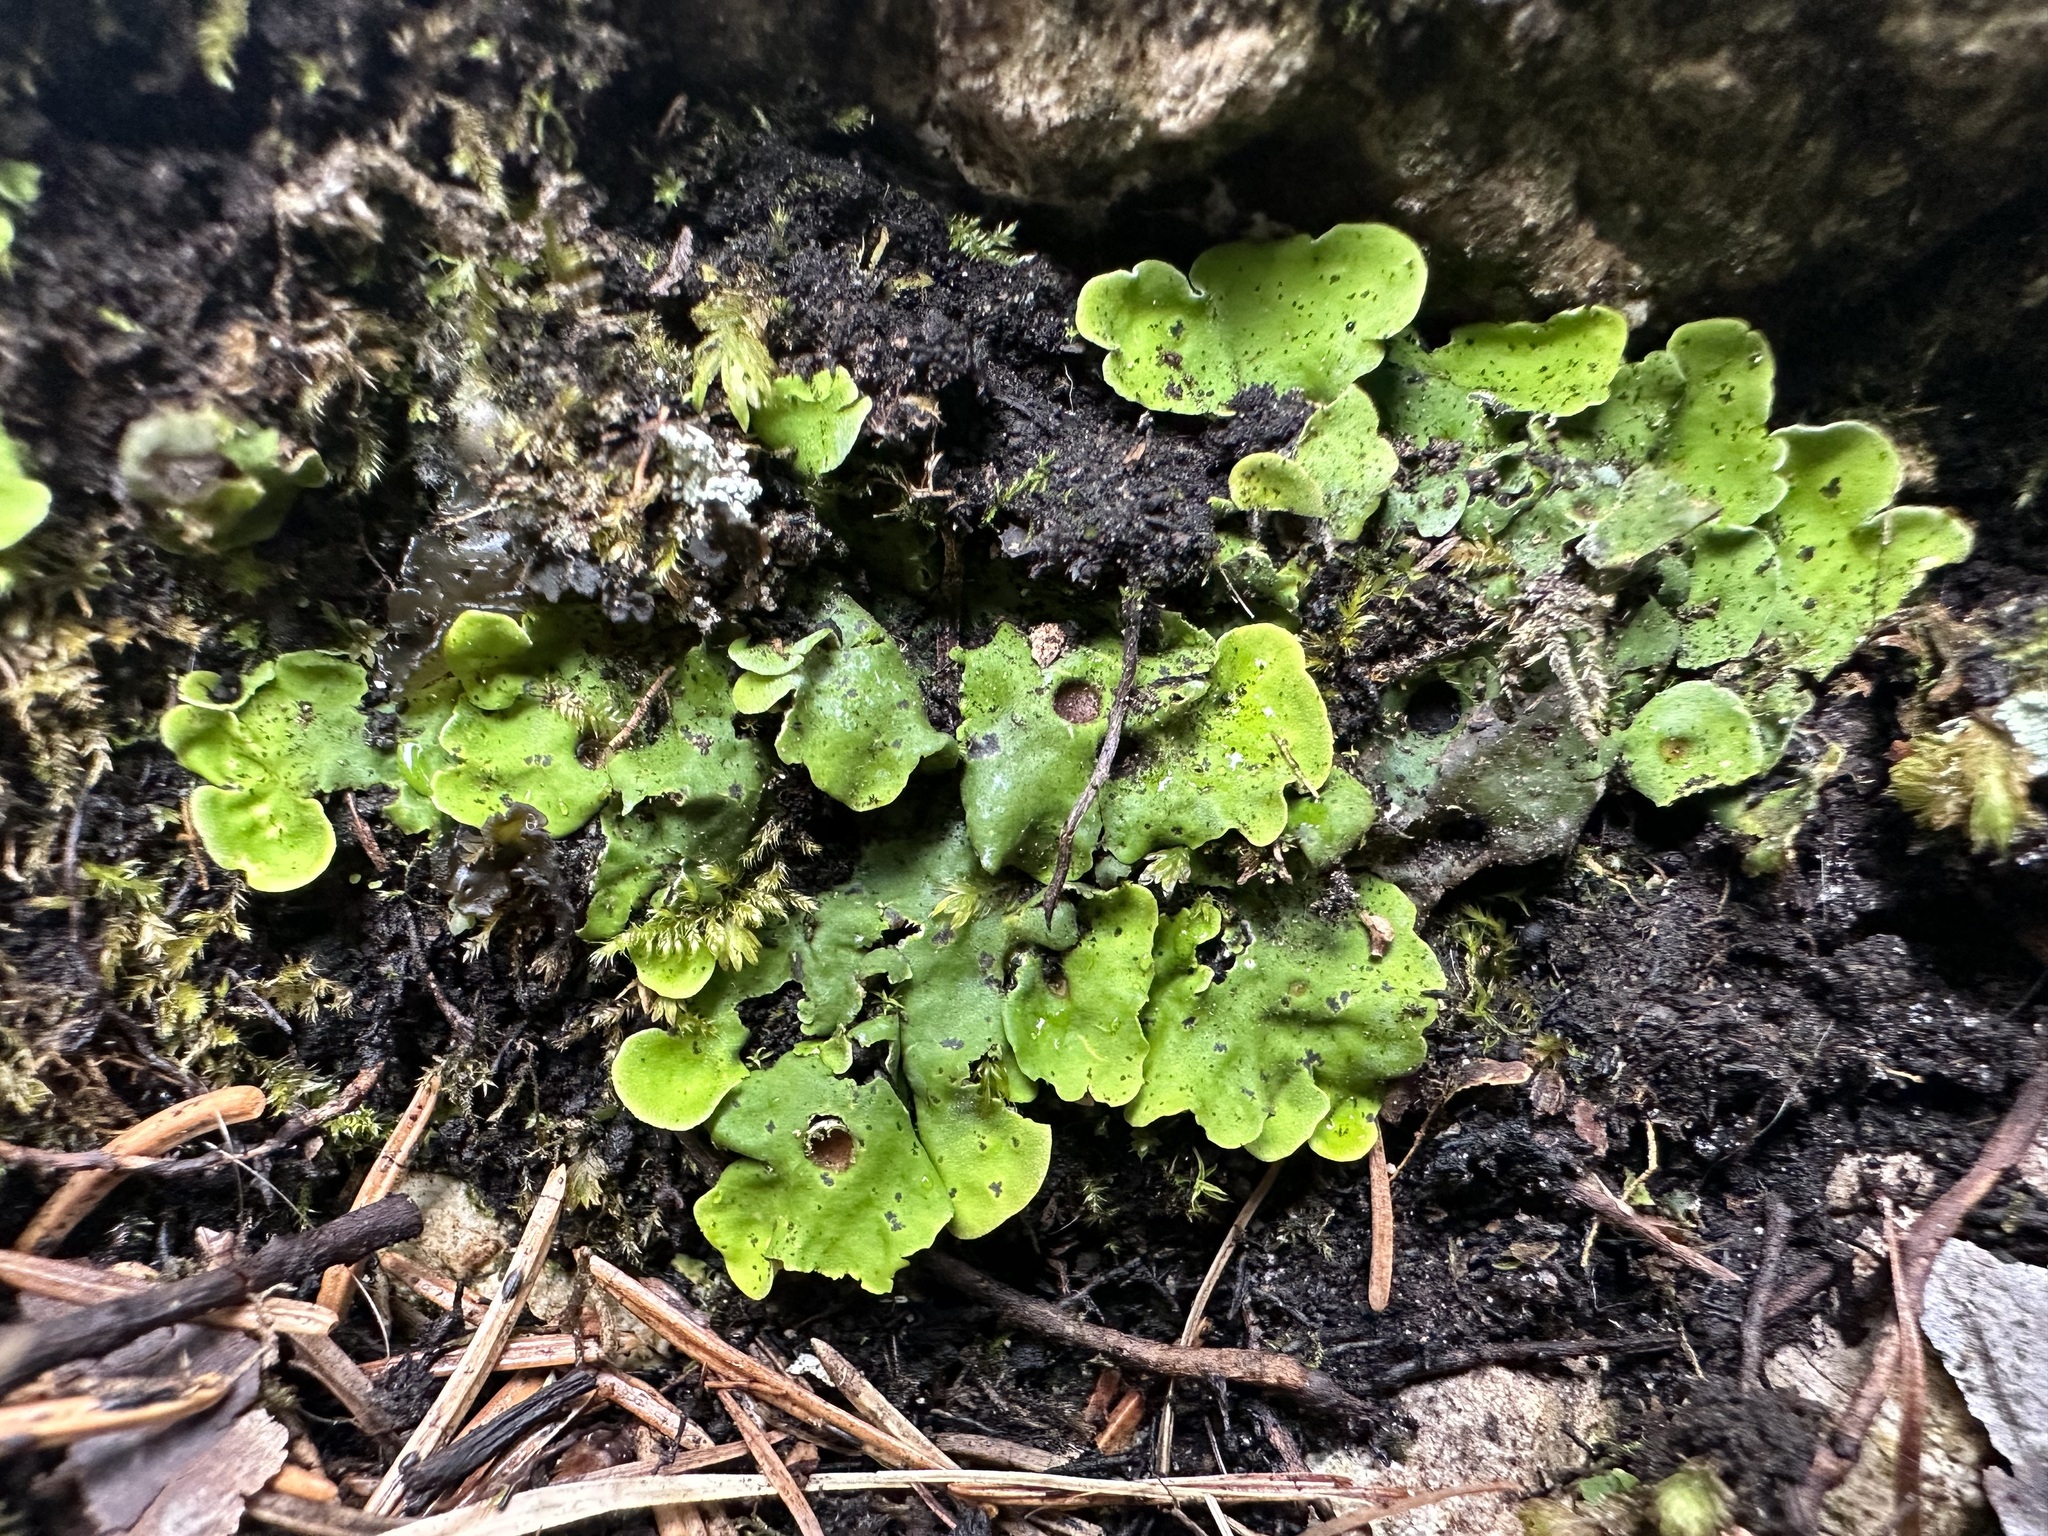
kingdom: Fungi
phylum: Ascomycota
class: Lecanoromycetes
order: Peltigerales
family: Peltigeraceae
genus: Solorina
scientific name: Solorina saccata
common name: Common chocolate chip lichen
